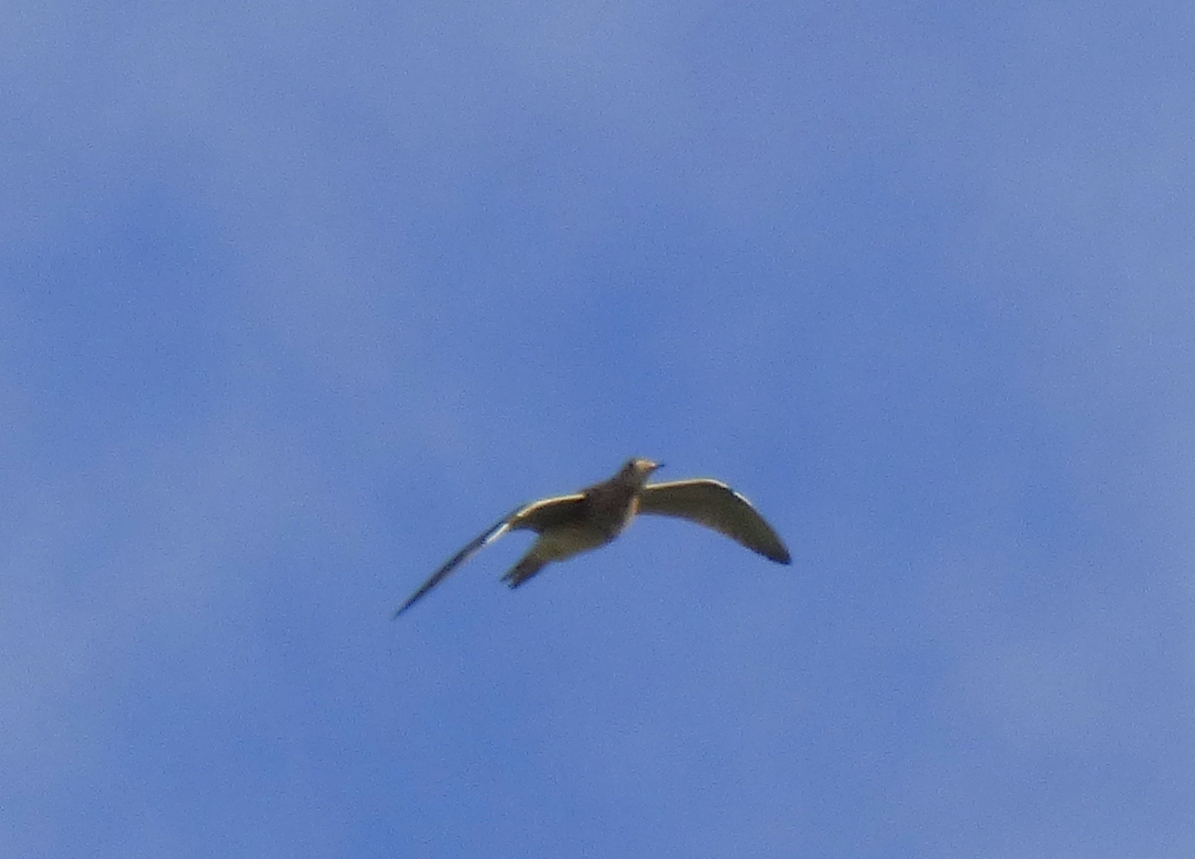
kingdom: Animalia
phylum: Chordata
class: Aves
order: Charadriiformes
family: Scolopacidae
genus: Bartramia
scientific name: Bartramia longicauda
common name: Upland sandpiper
